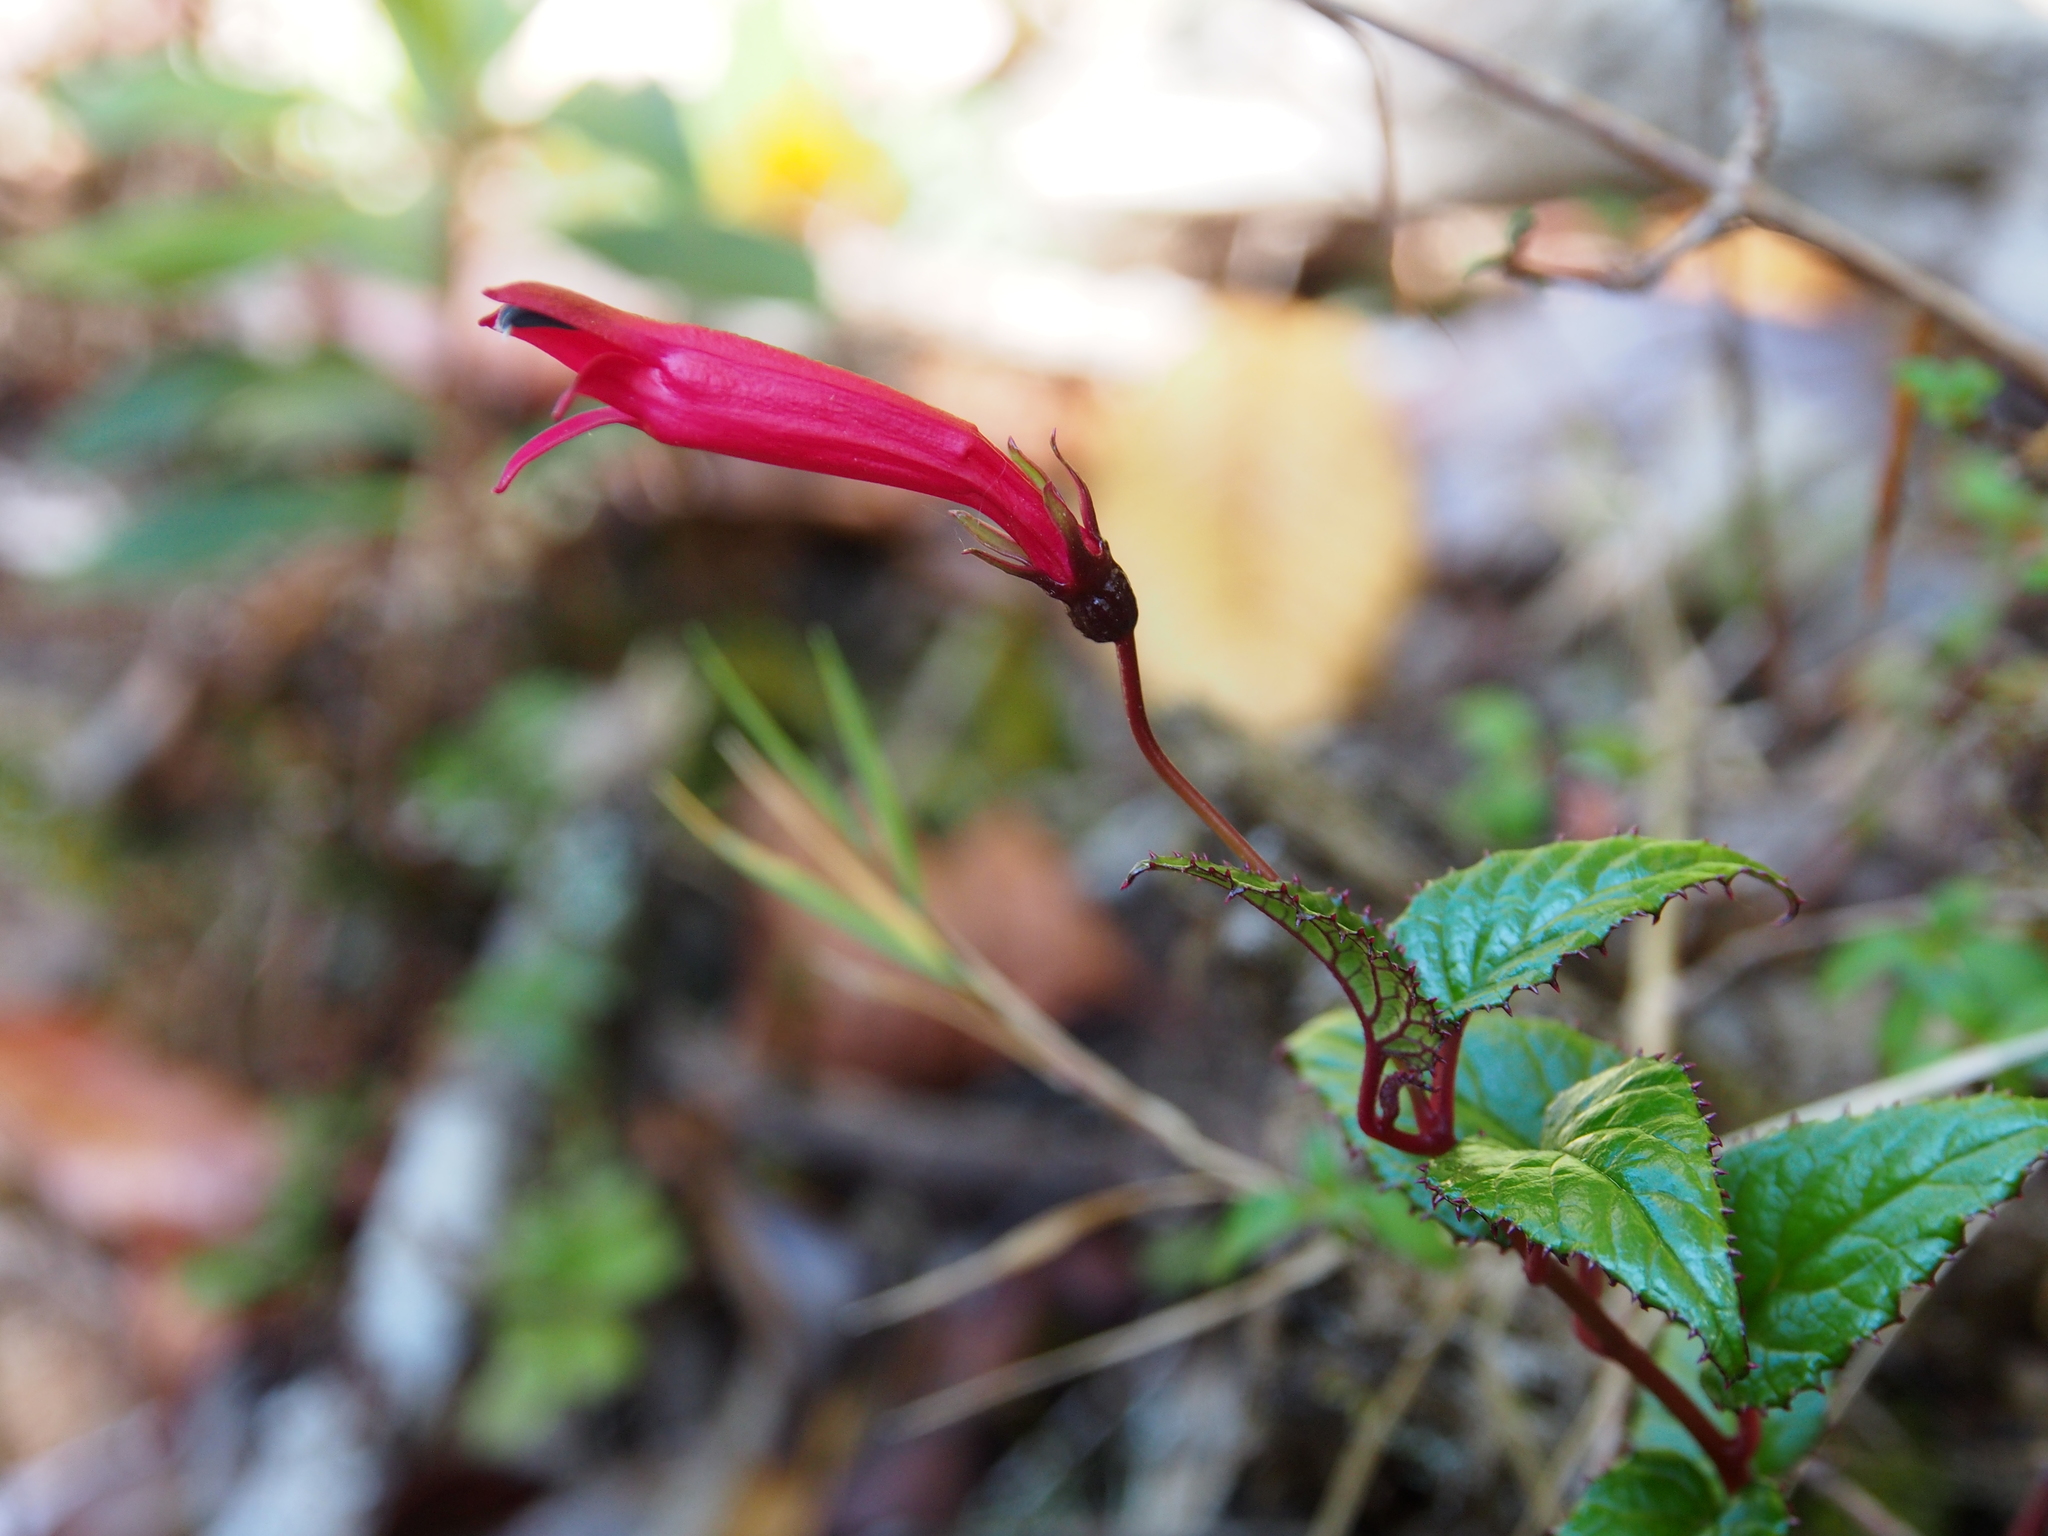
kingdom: Plantae
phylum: Tracheophyta
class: Magnoliopsida
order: Asterales
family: Campanulaceae
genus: Centropogon
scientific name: Centropogon costaricae
